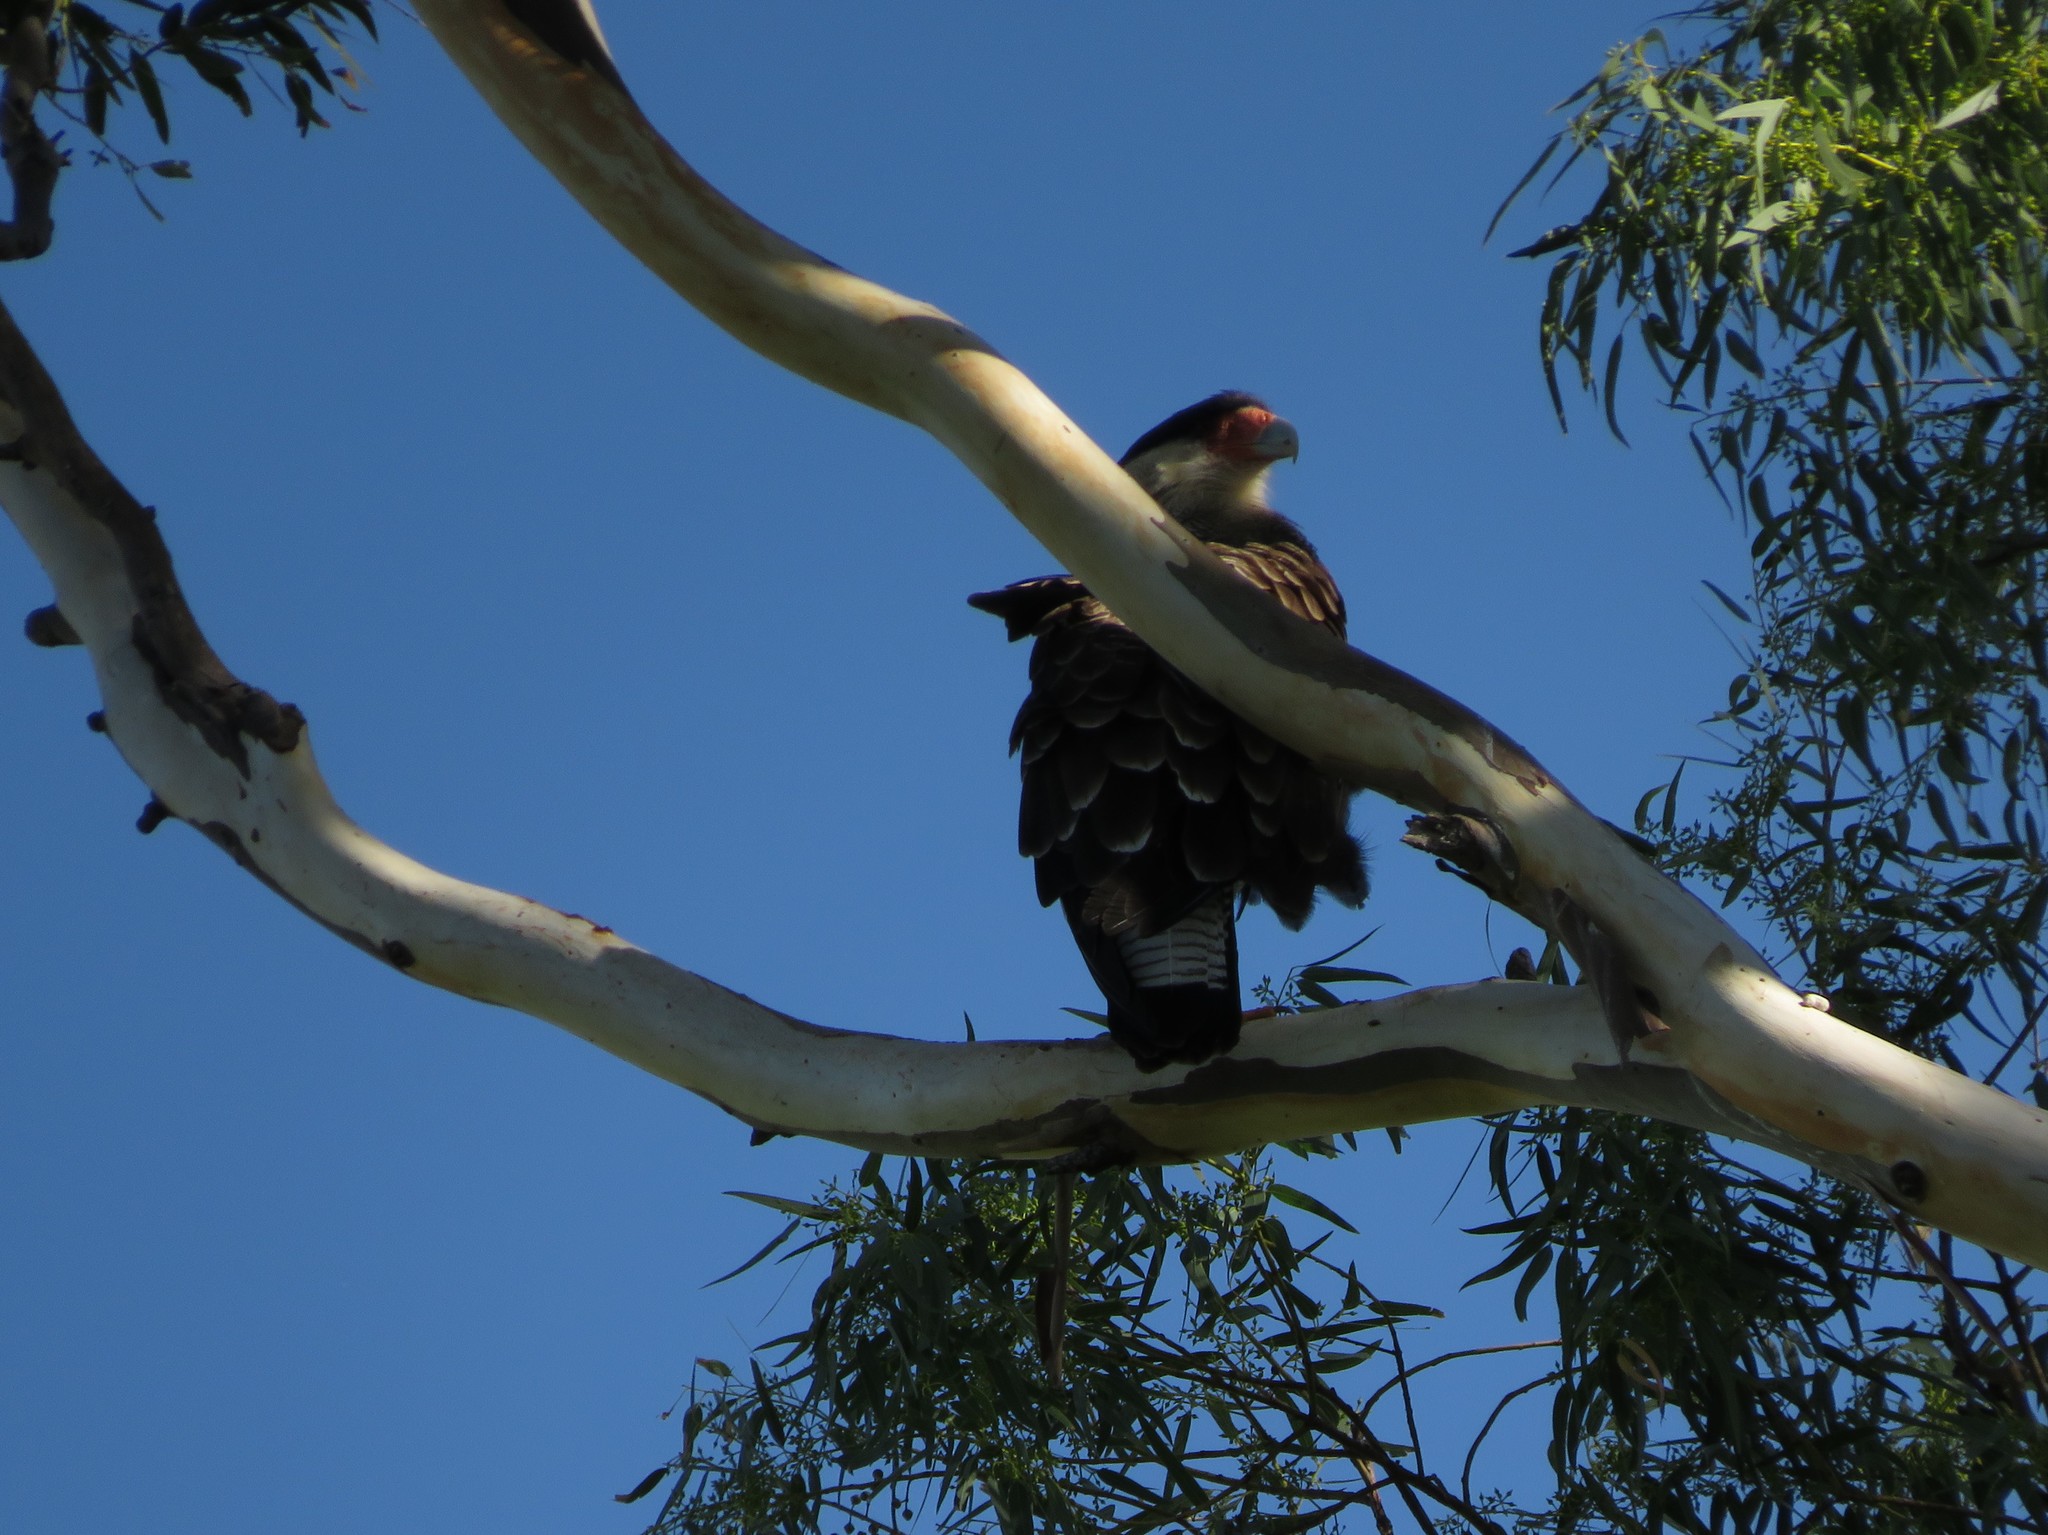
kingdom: Animalia
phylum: Chordata
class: Aves
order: Falconiformes
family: Falconidae
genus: Caracara
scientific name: Caracara plancus
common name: Southern caracara
